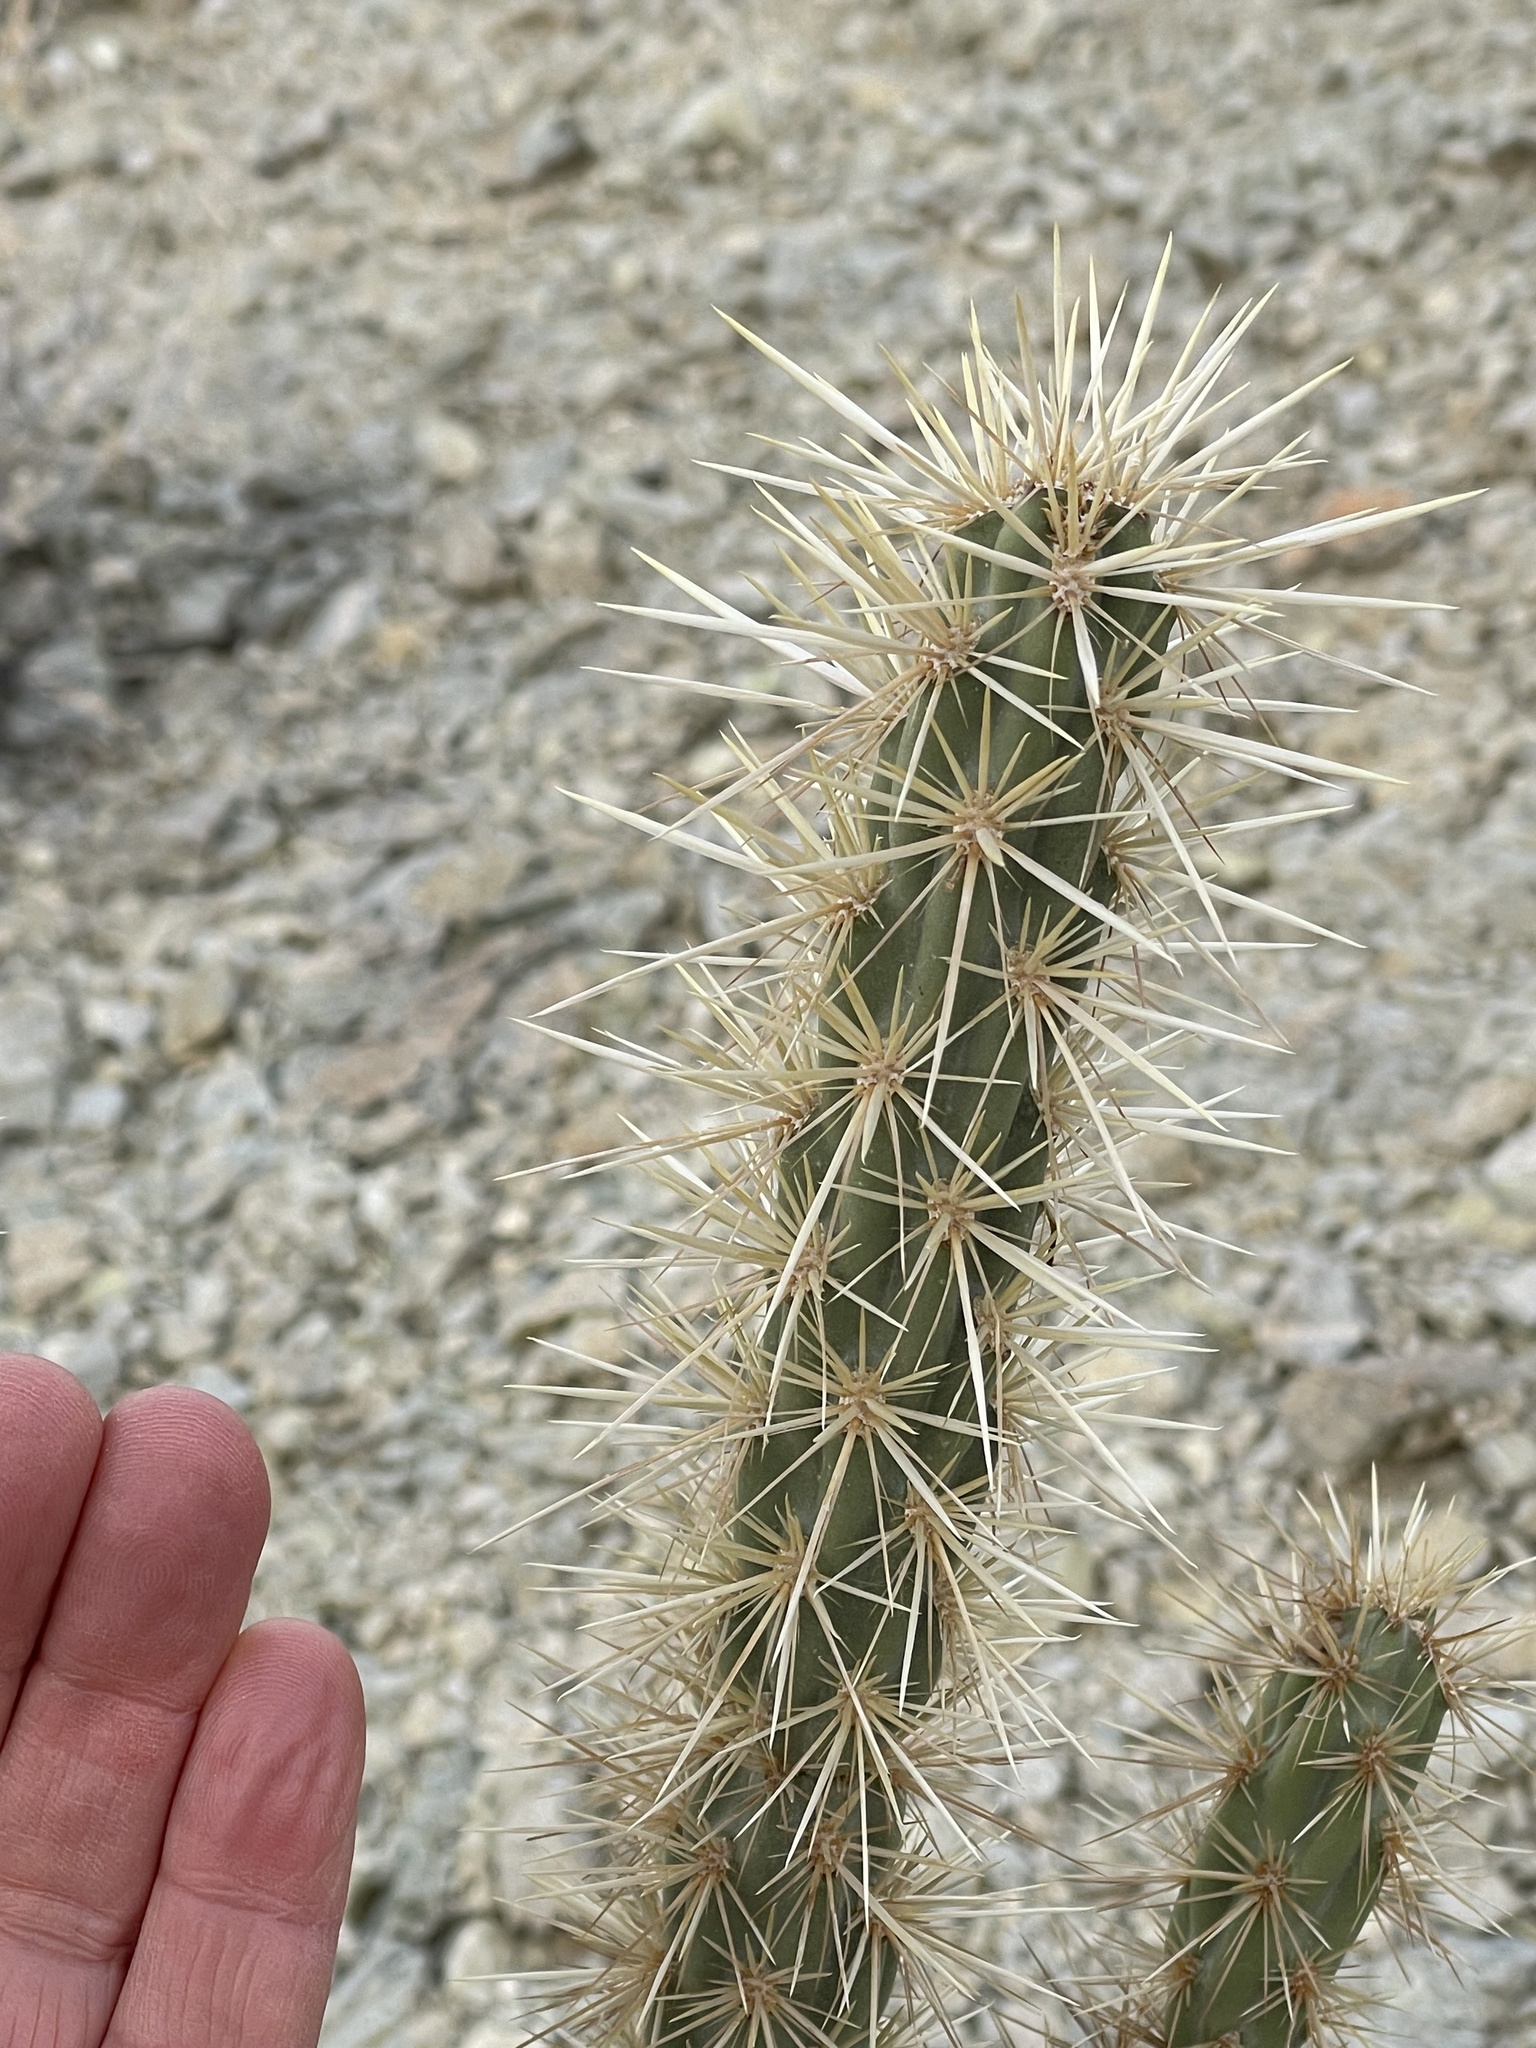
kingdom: Plantae
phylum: Tracheophyta
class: Magnoliopsida
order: Caryophyllales
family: Cactaceae
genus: Cylindropuntia
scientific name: Cylindropuntia acanthocarpa
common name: Buckhorn cholla
